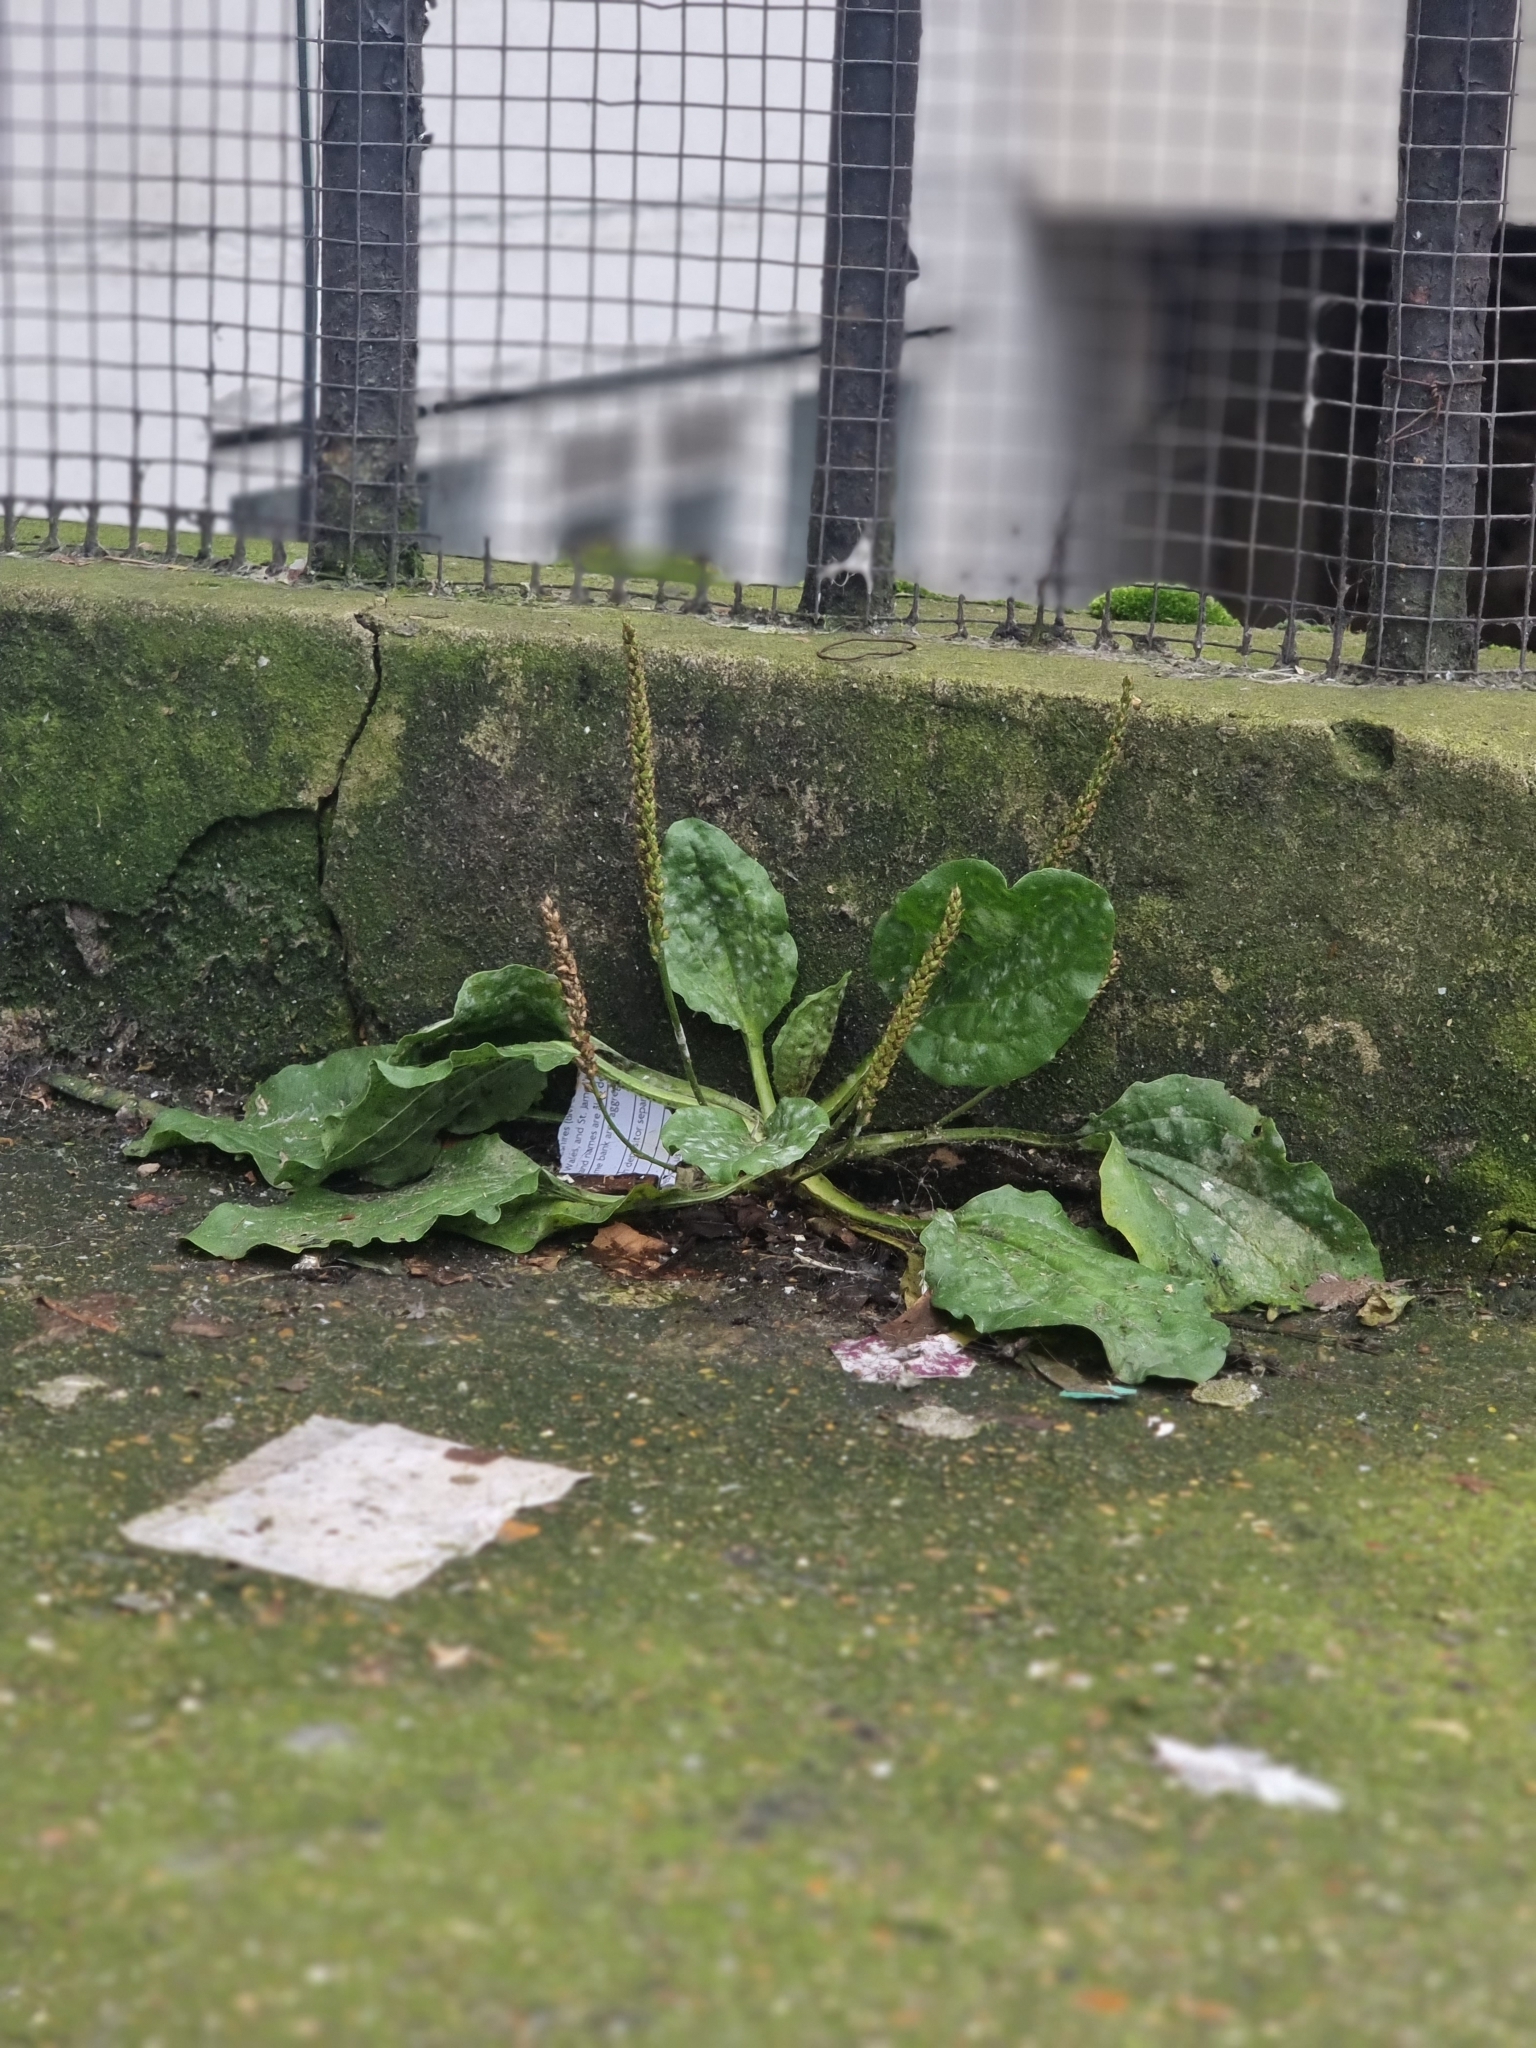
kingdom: Plantae
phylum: Tracheophyta
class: Magnoliopsida
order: Lamiales
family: Plantaginaceae
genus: Plantago
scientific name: Plantago major
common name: Common plantain
